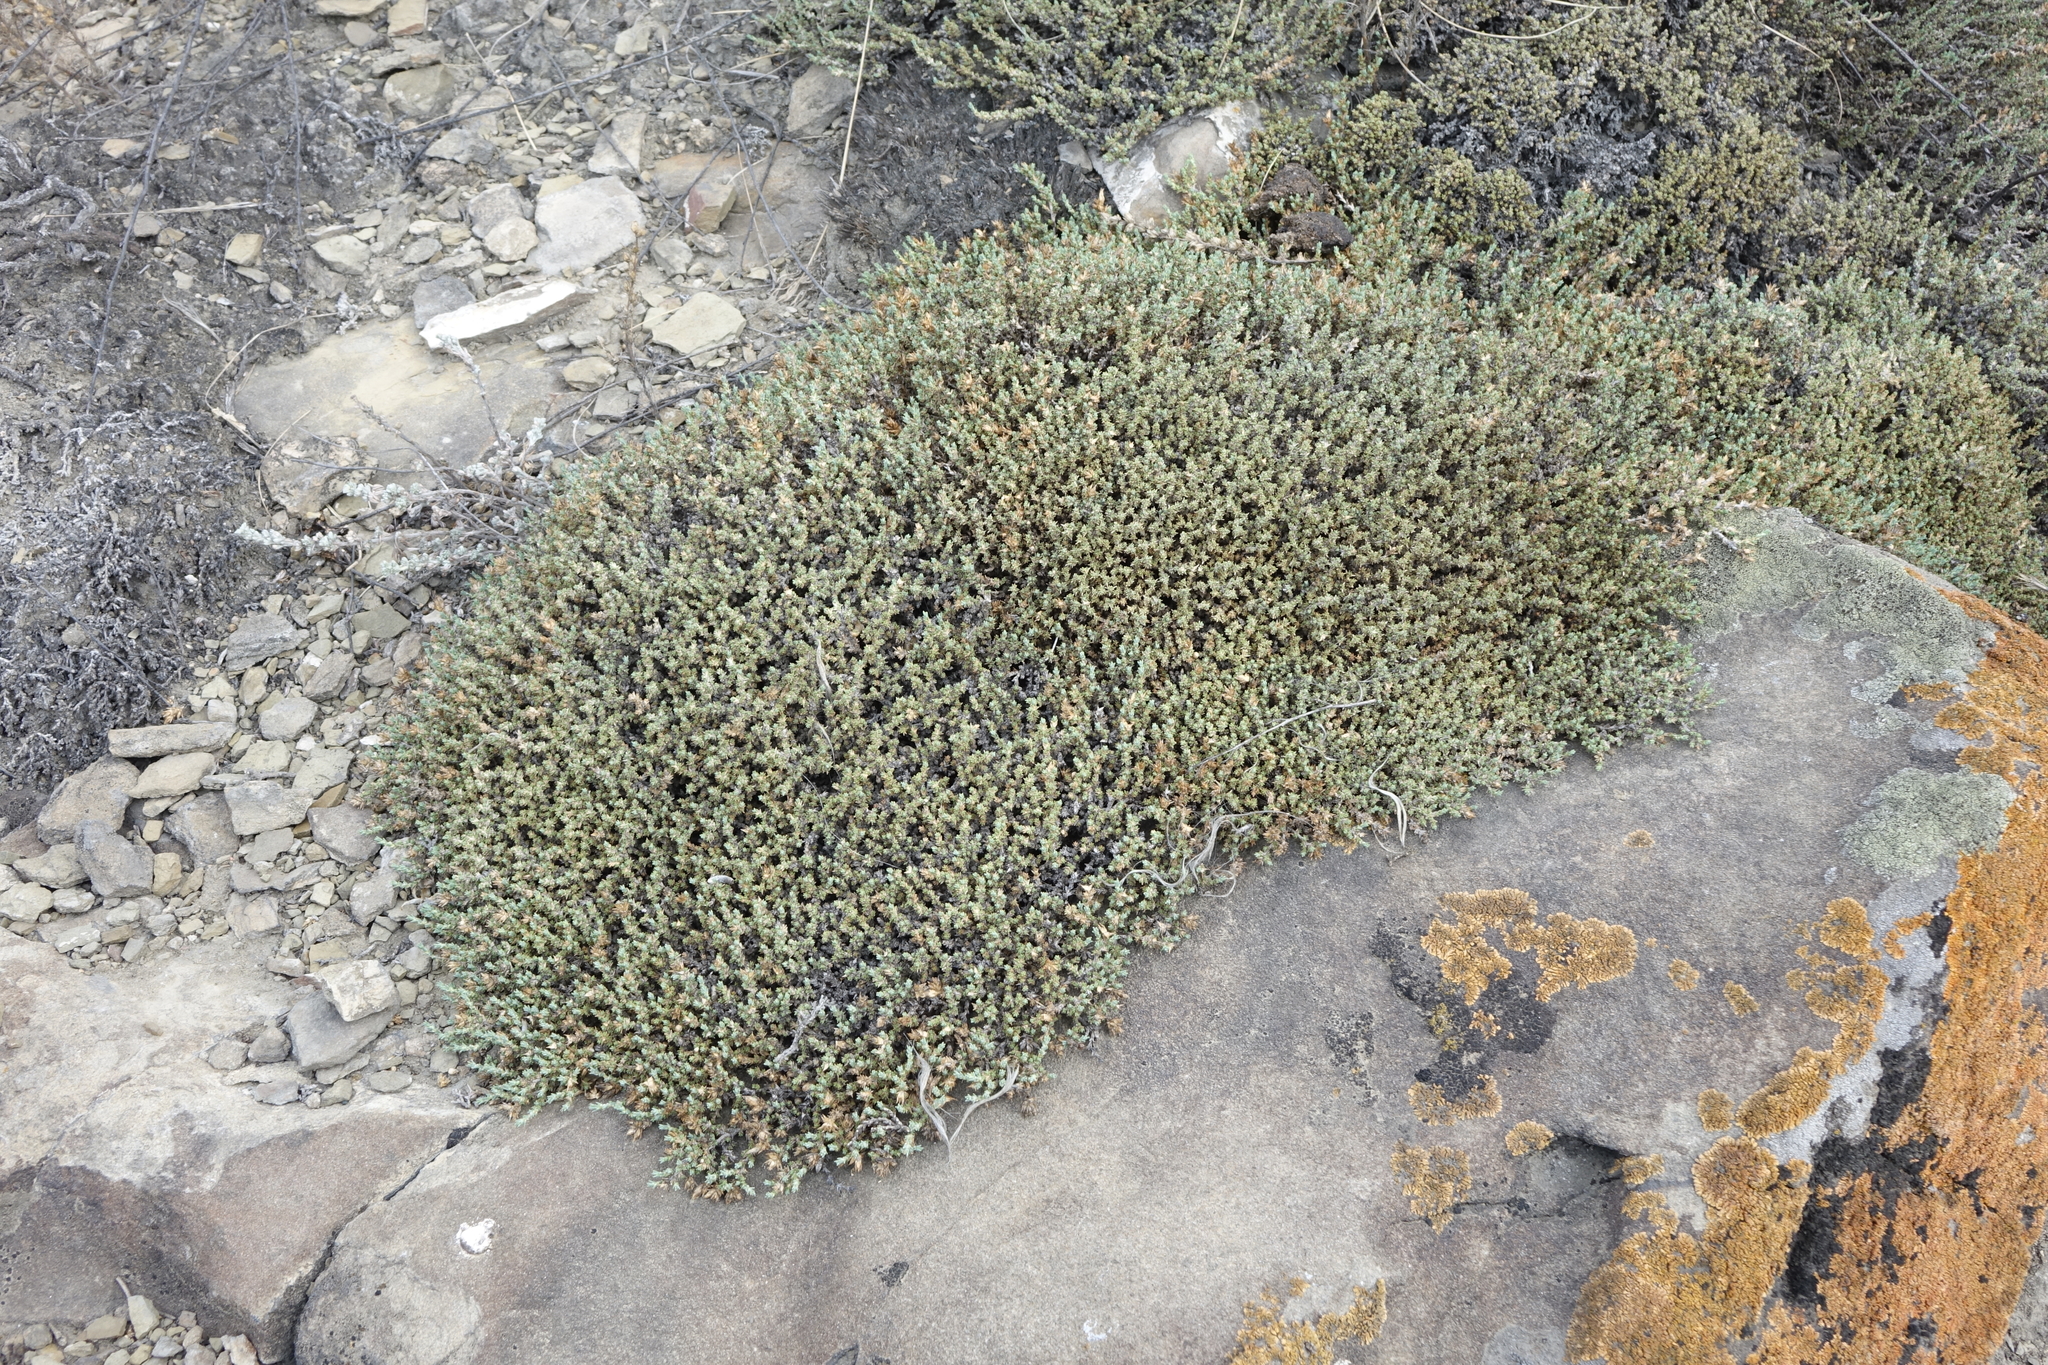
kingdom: Plantae
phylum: Tracheophyta
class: Magnoliopsida
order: Caryophyllales
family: Amaranthaceae
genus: Nanophyton
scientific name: Nanophyton grubovii
